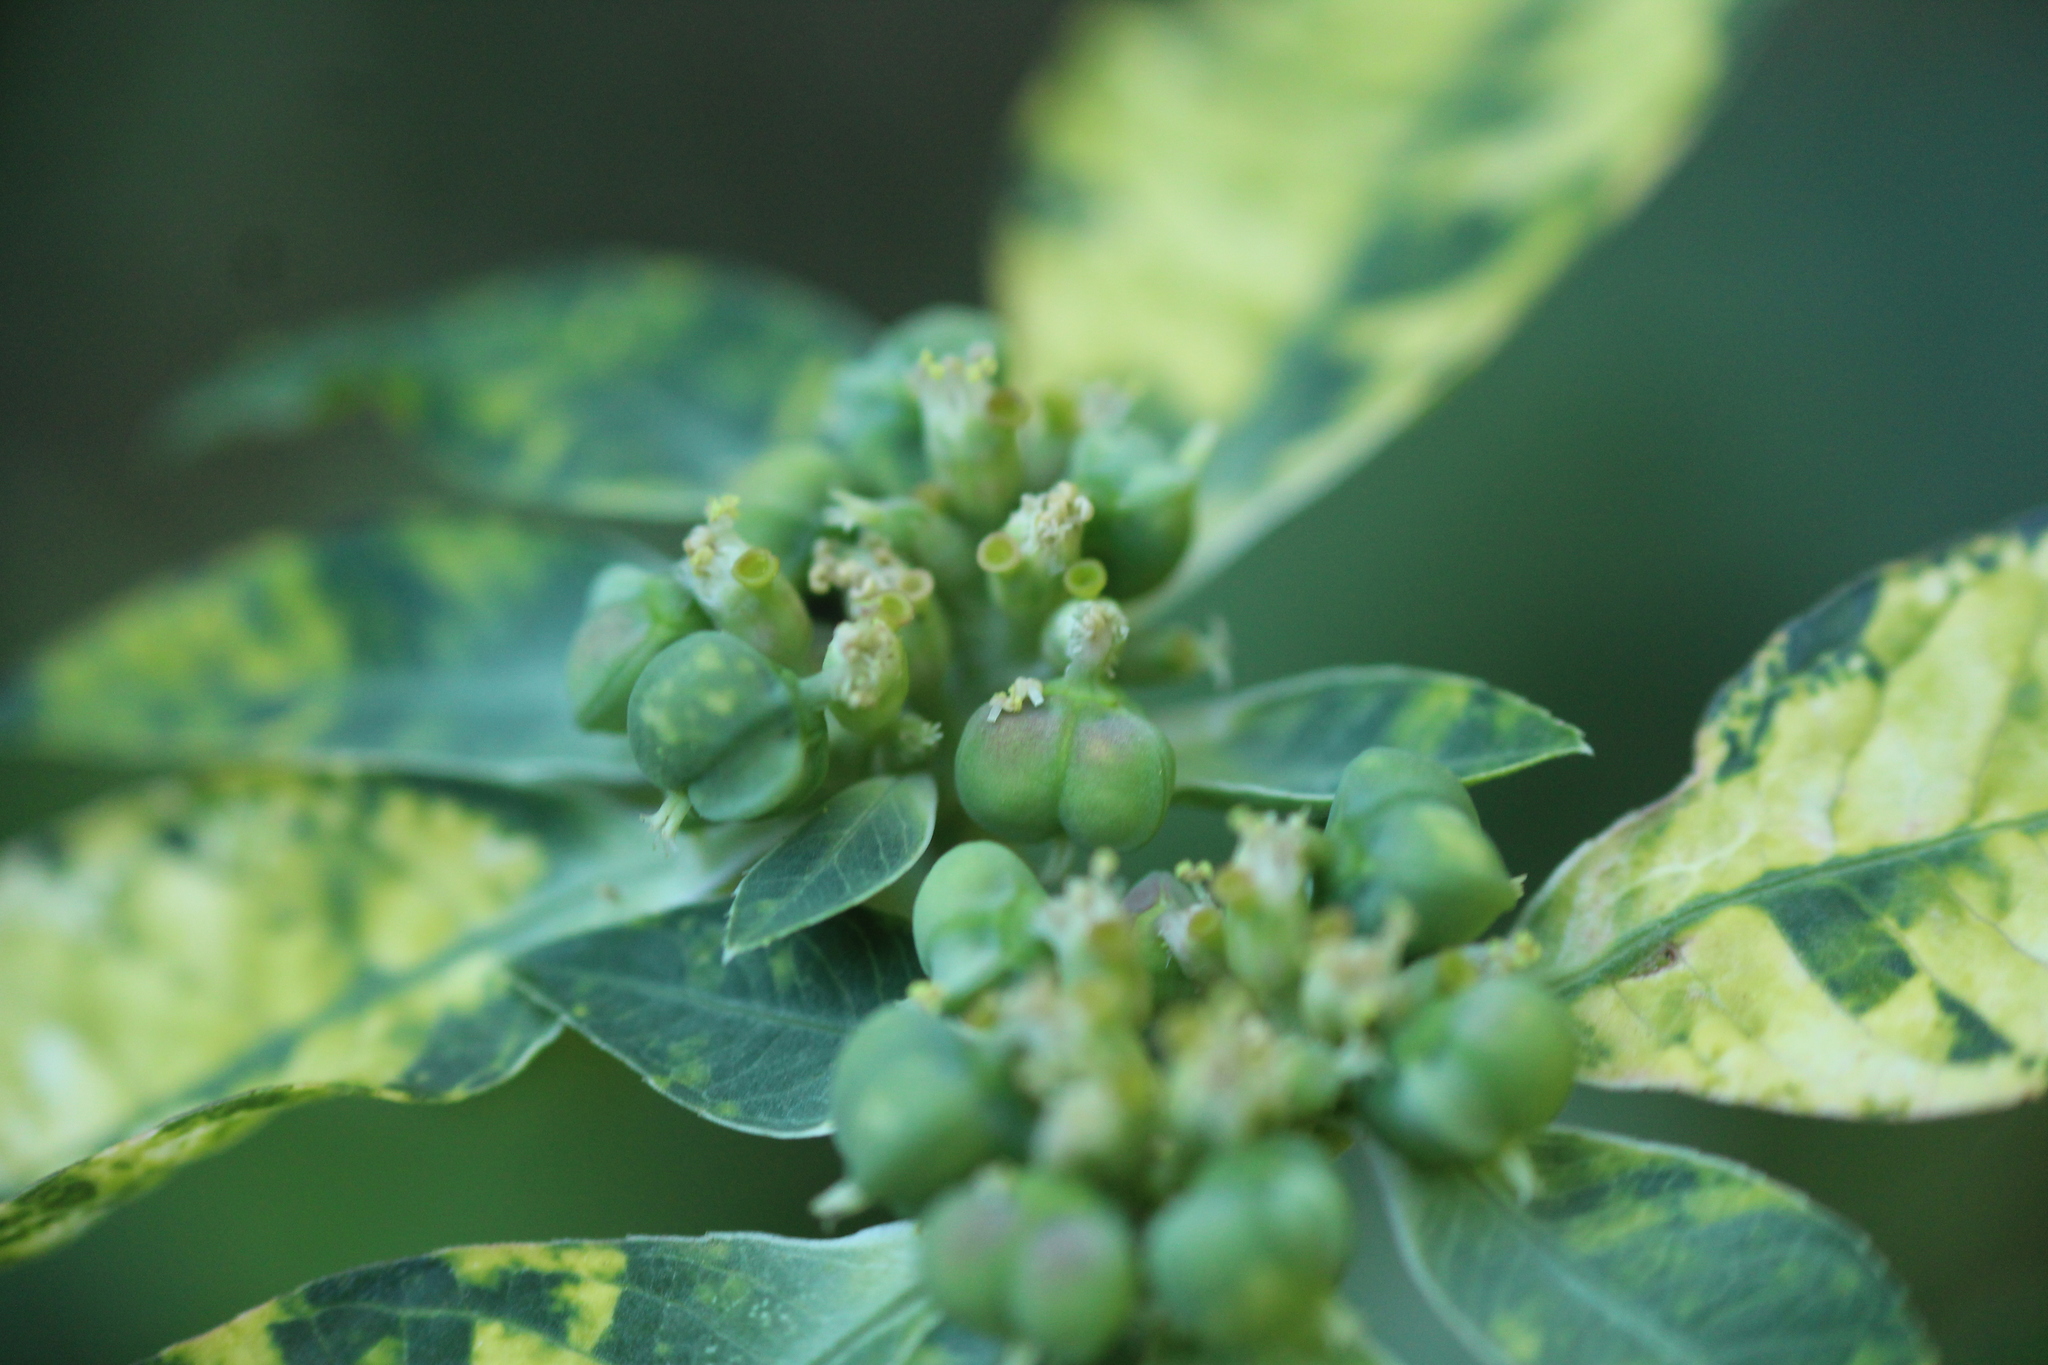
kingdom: Plantae
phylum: Tracheophyta
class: Magnoliopsida
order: Malpighiales
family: Euphorbiaceae
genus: Euphorbia
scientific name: Euphorbia heterophylla
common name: Mexican fireplant
